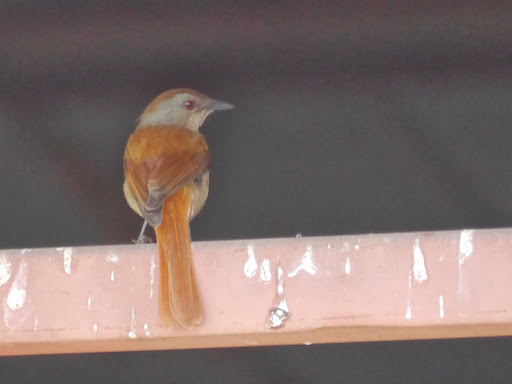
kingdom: Animalia
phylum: Chordata
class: Aves
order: Passeriformes
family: Muscicapidae
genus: Cichladusa
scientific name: Cichladusa ruficauda
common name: Rufous-tailed palm thrush
